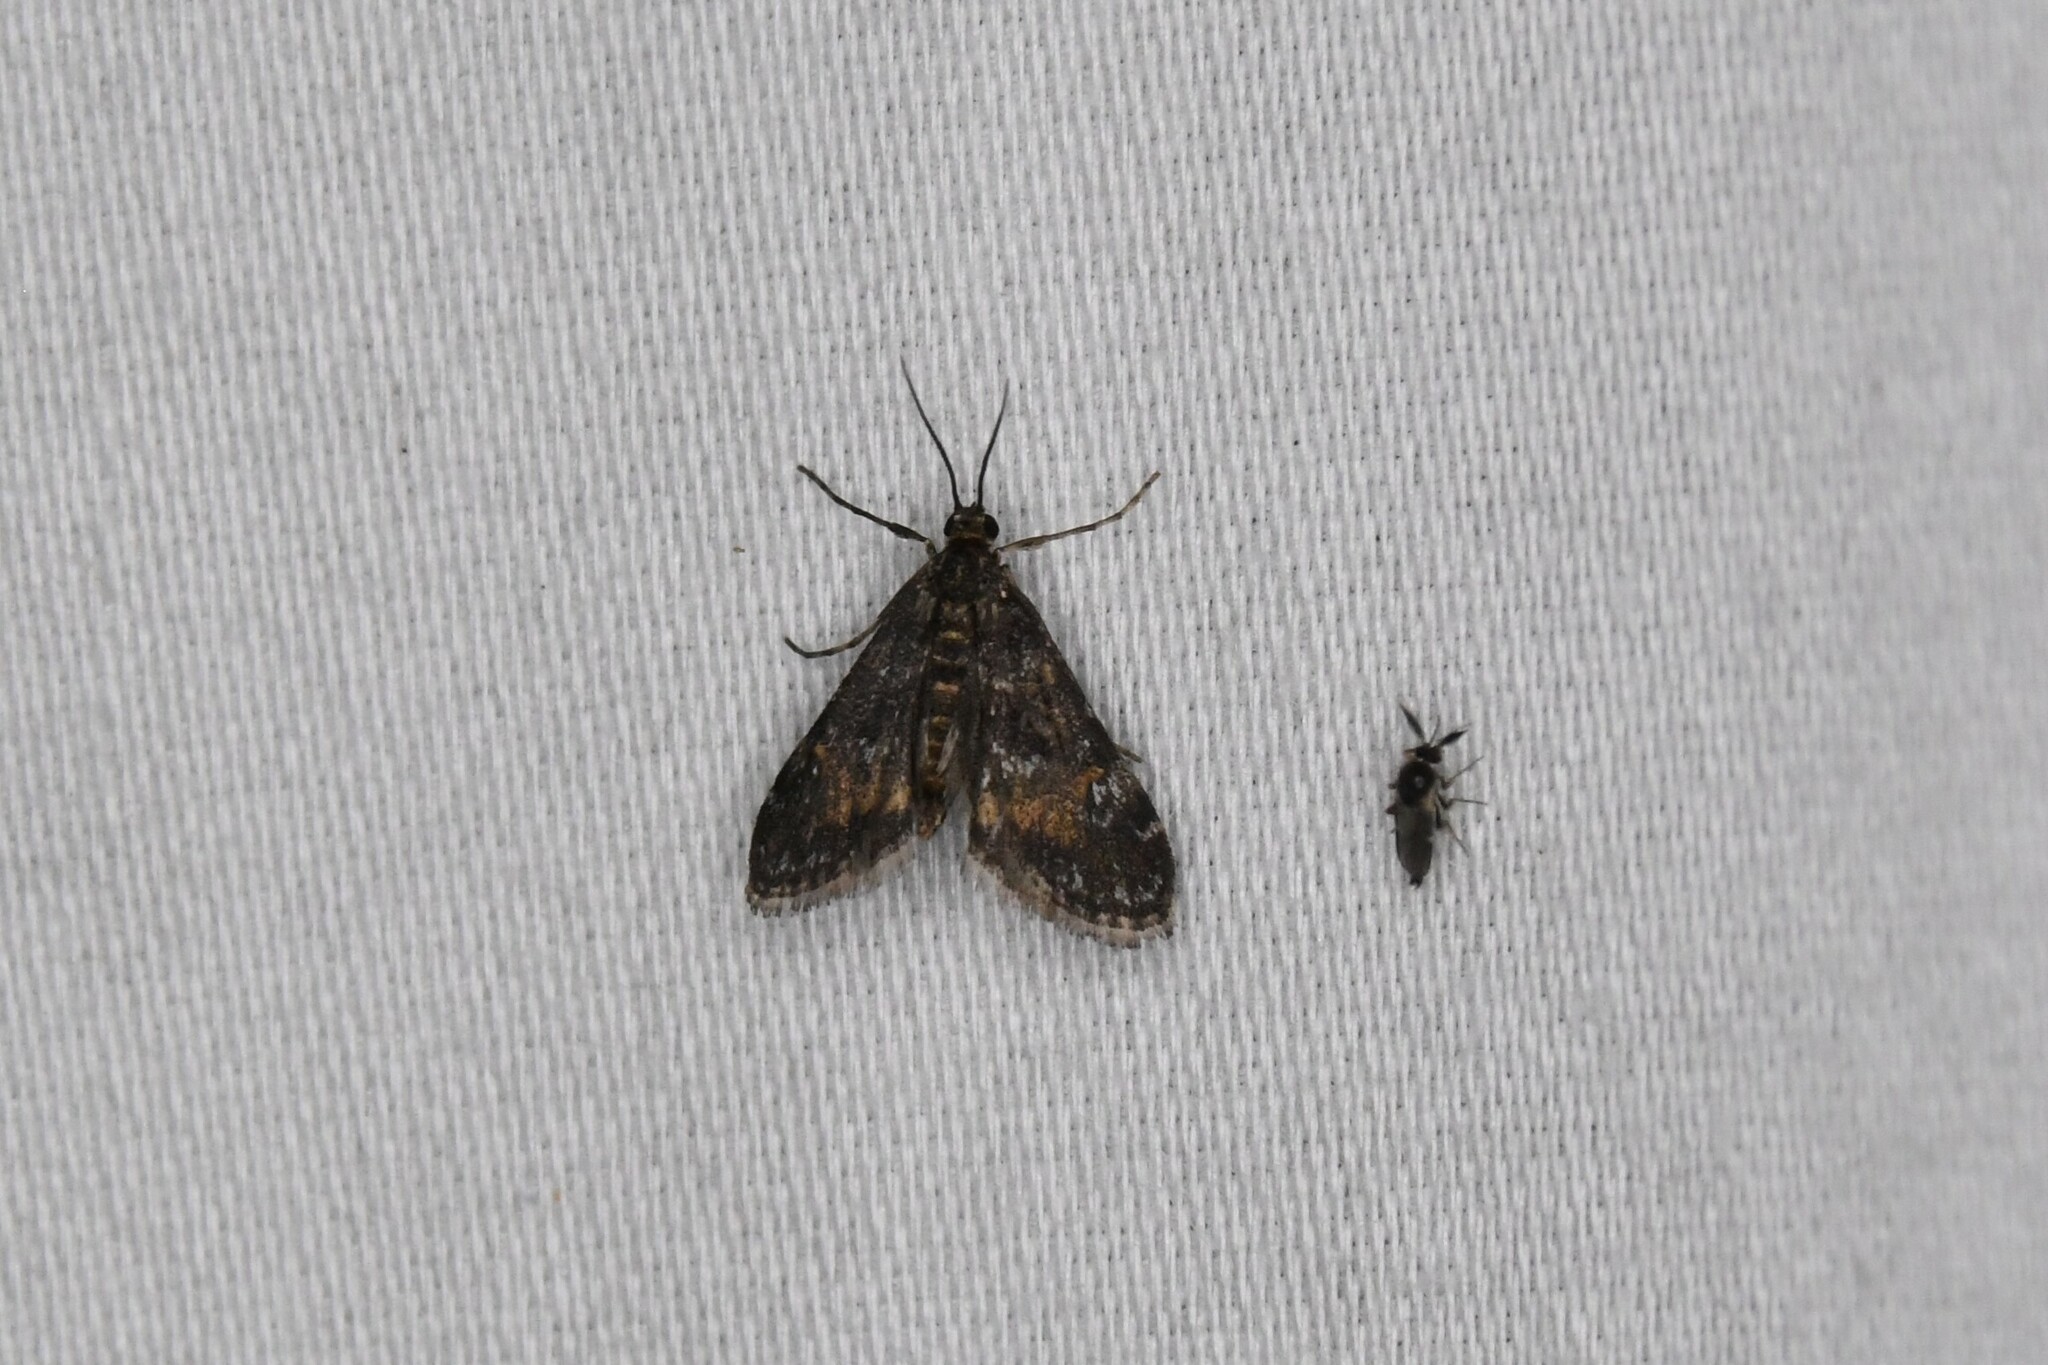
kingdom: Animalia
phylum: Arthropoda
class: Insecta
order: Lepidoptera
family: Crambidae
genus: Elophila
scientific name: Elophila obliteralis
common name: Waterlily leafcutter moth
